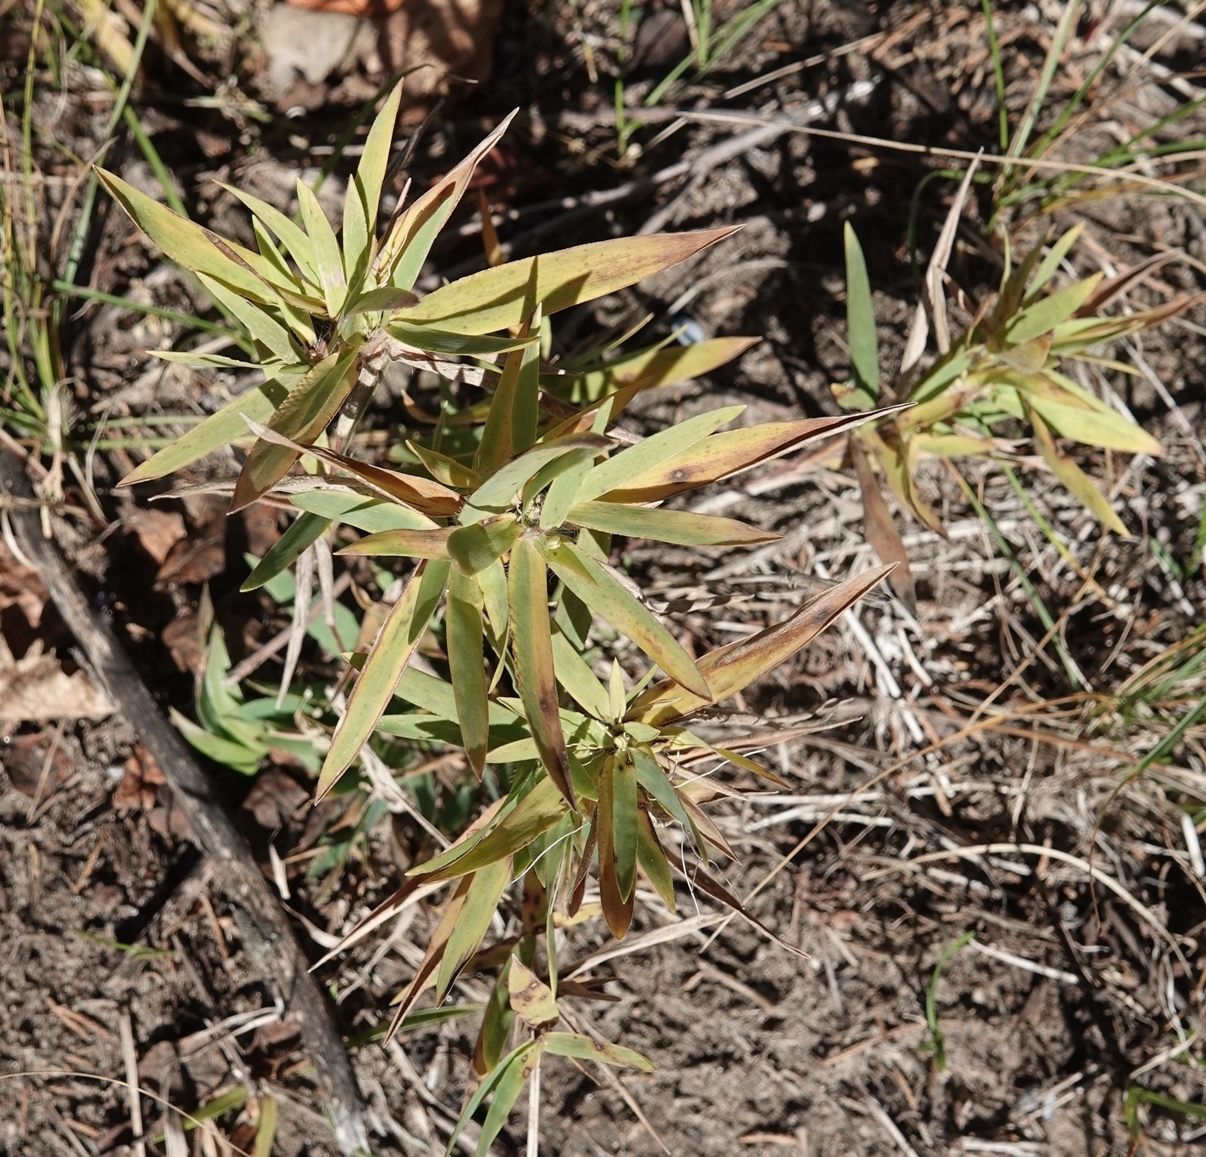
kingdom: Plantae
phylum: Tracheophyta
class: Liliopsida
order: Poales
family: Poaceae
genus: Dichanthelium
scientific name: Dichanthelium scribnerianum
